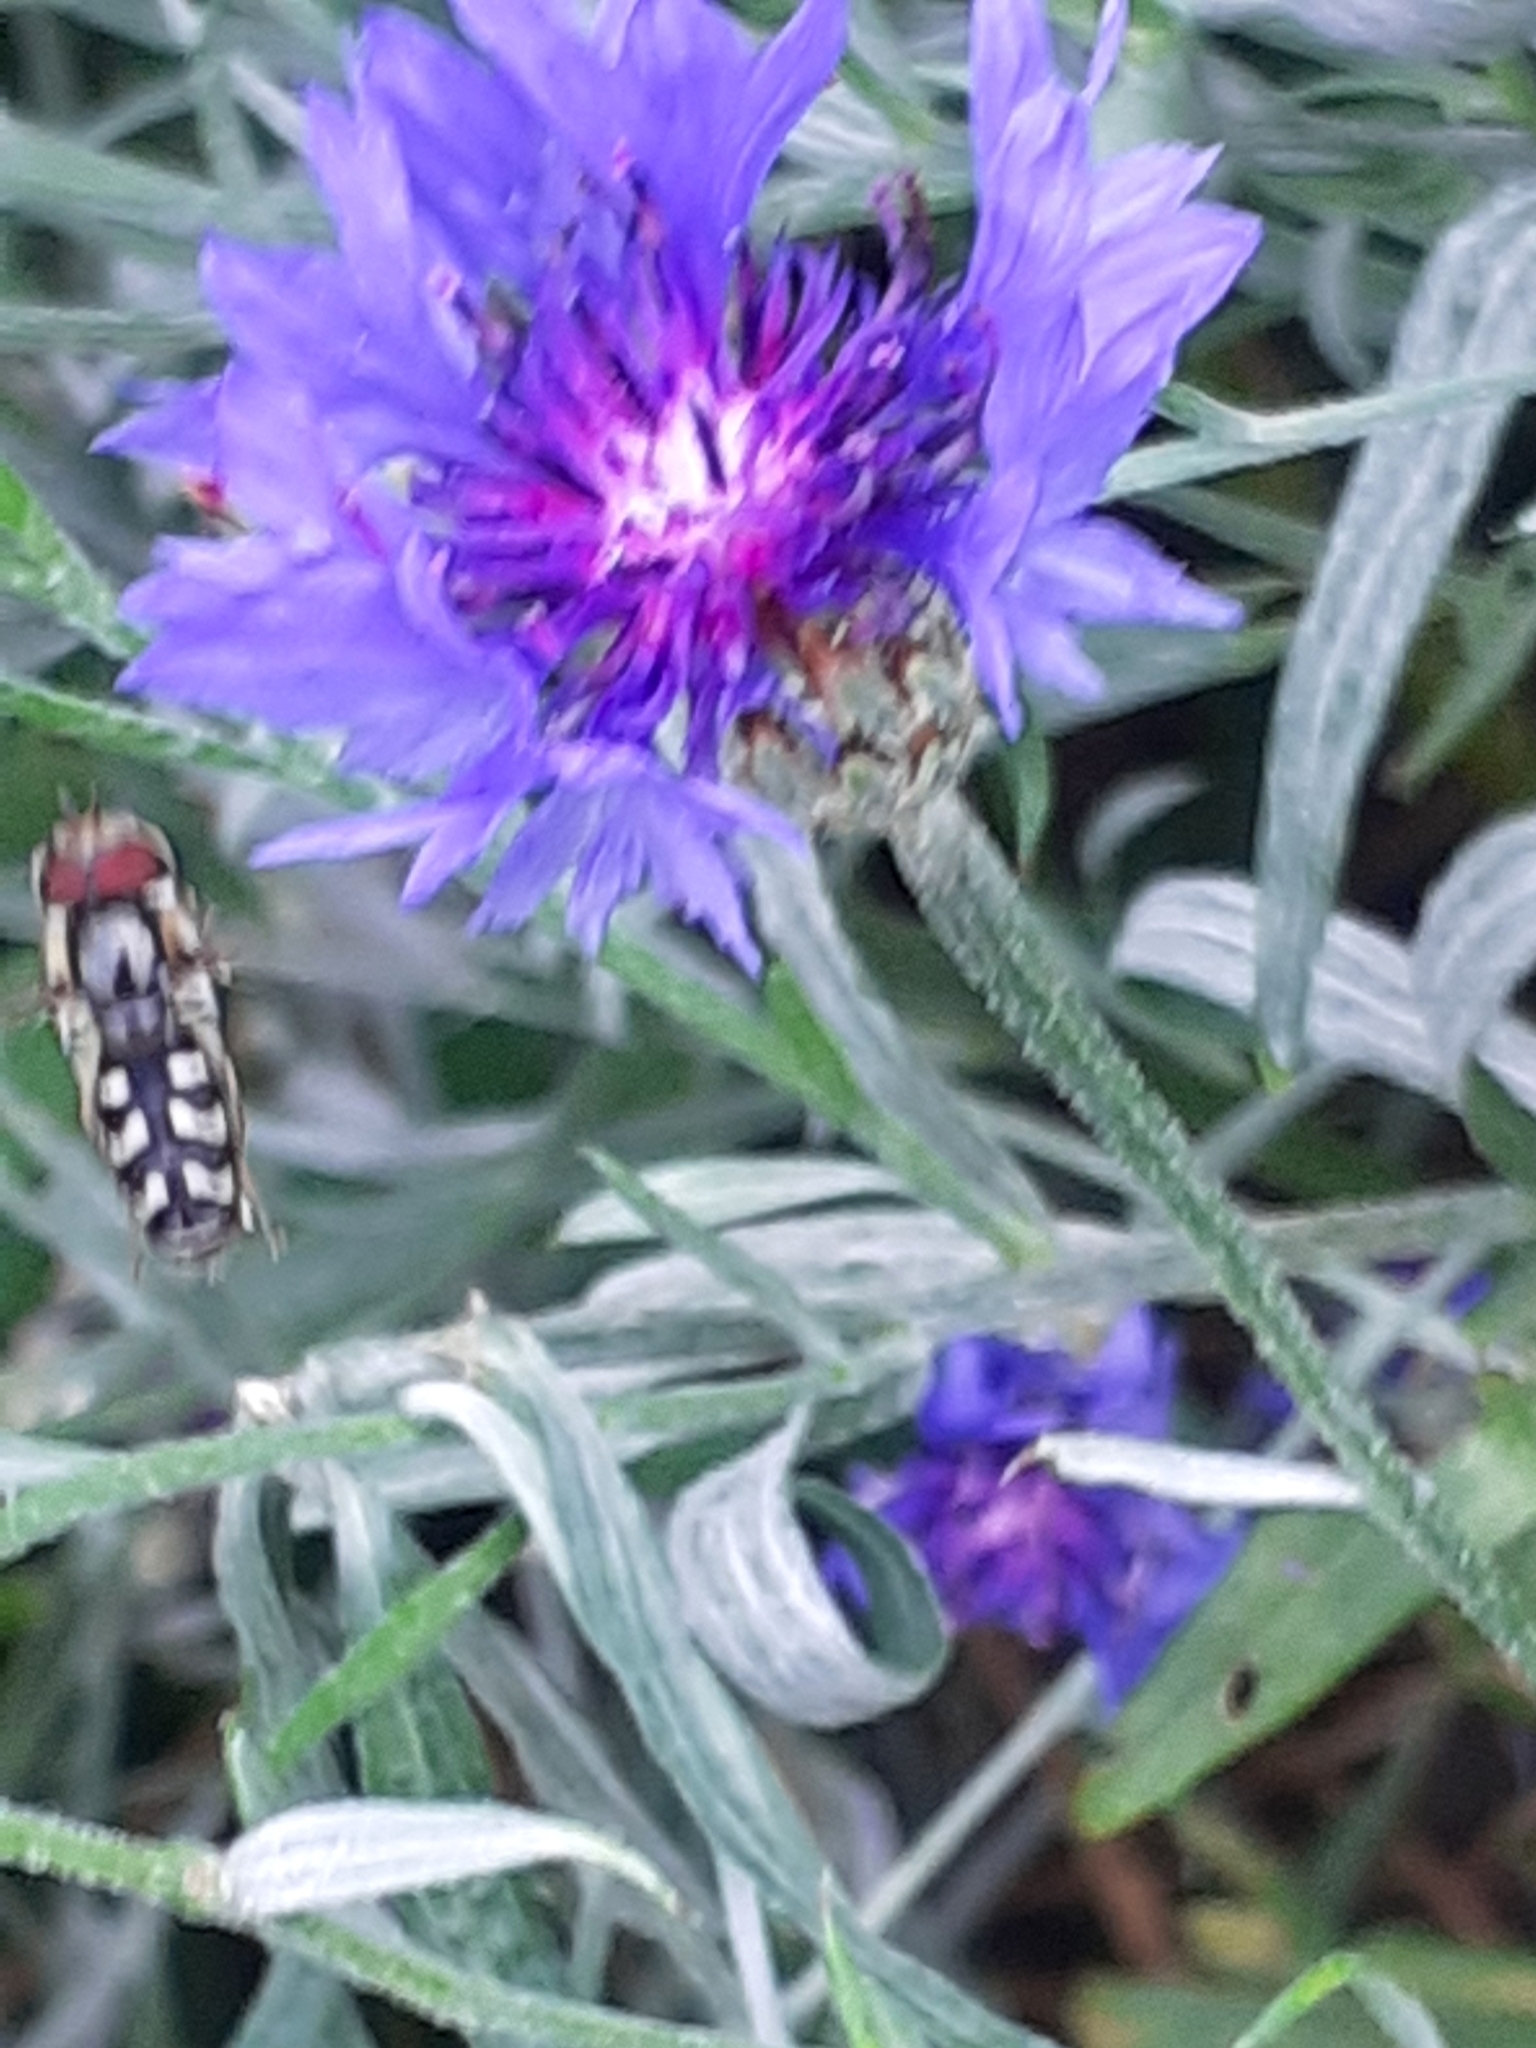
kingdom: Animalia
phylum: Arthropoda
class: Insecta
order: Diptera
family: Syrphidae
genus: Scaeva
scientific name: Scaeva pyrastri
